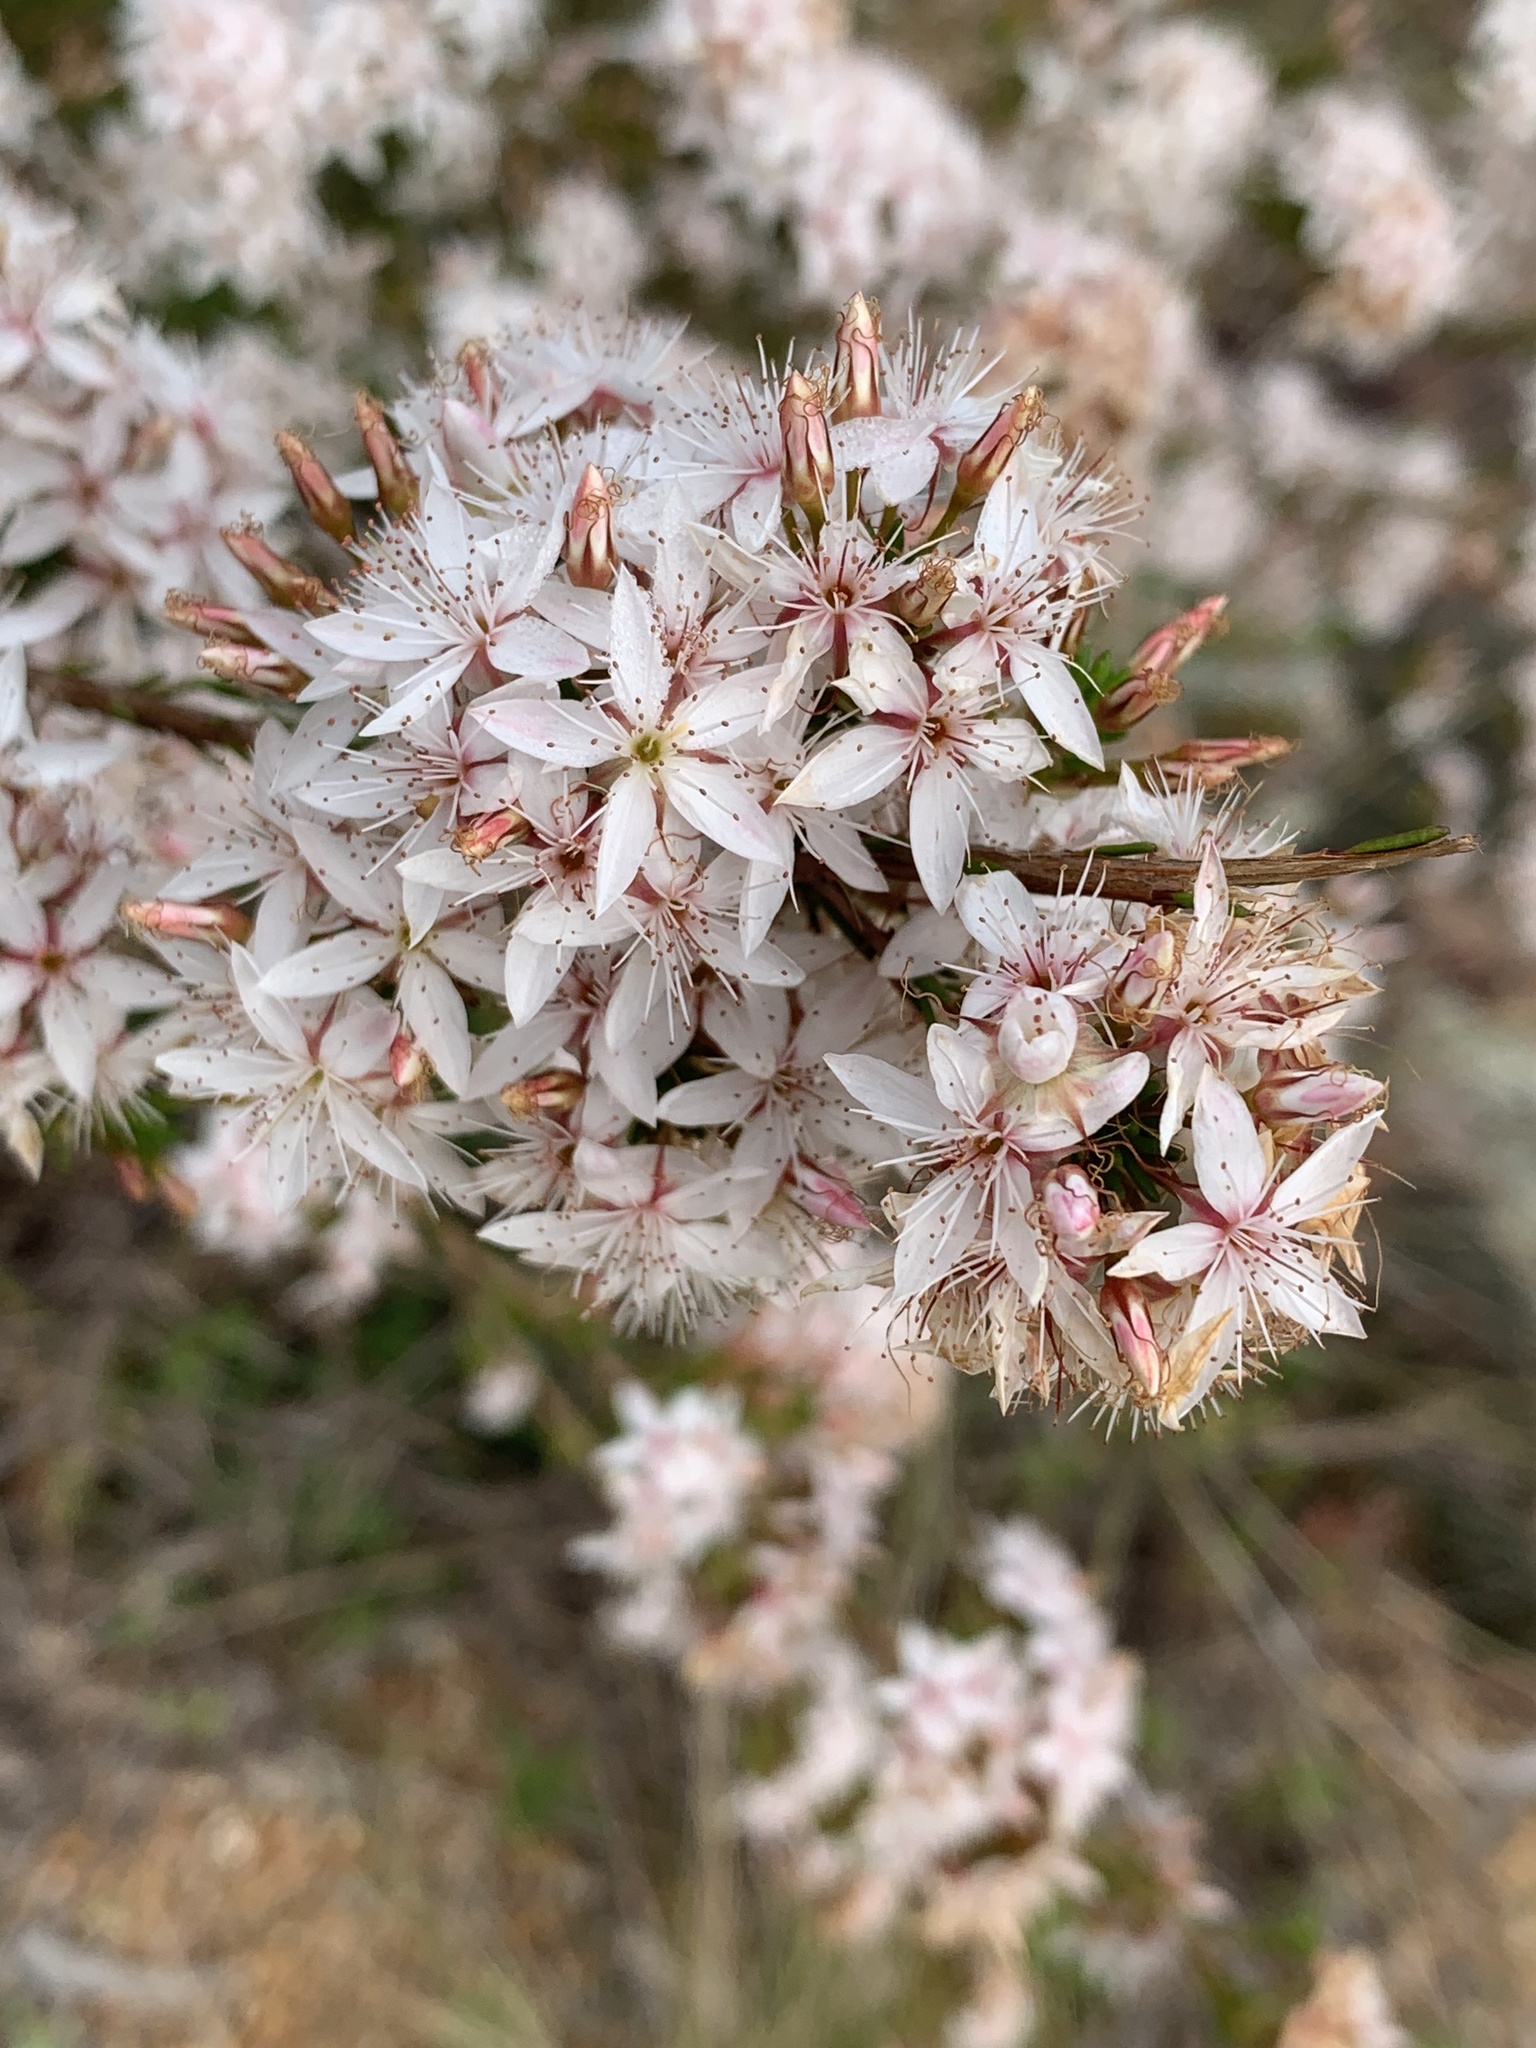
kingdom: Plantae
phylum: Tracheophyta
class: Magnoliopsida
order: Myrtales
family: Myrtaceae
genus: Calytrix
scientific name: Calytrix tetragona
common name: Common fringe myrtle
